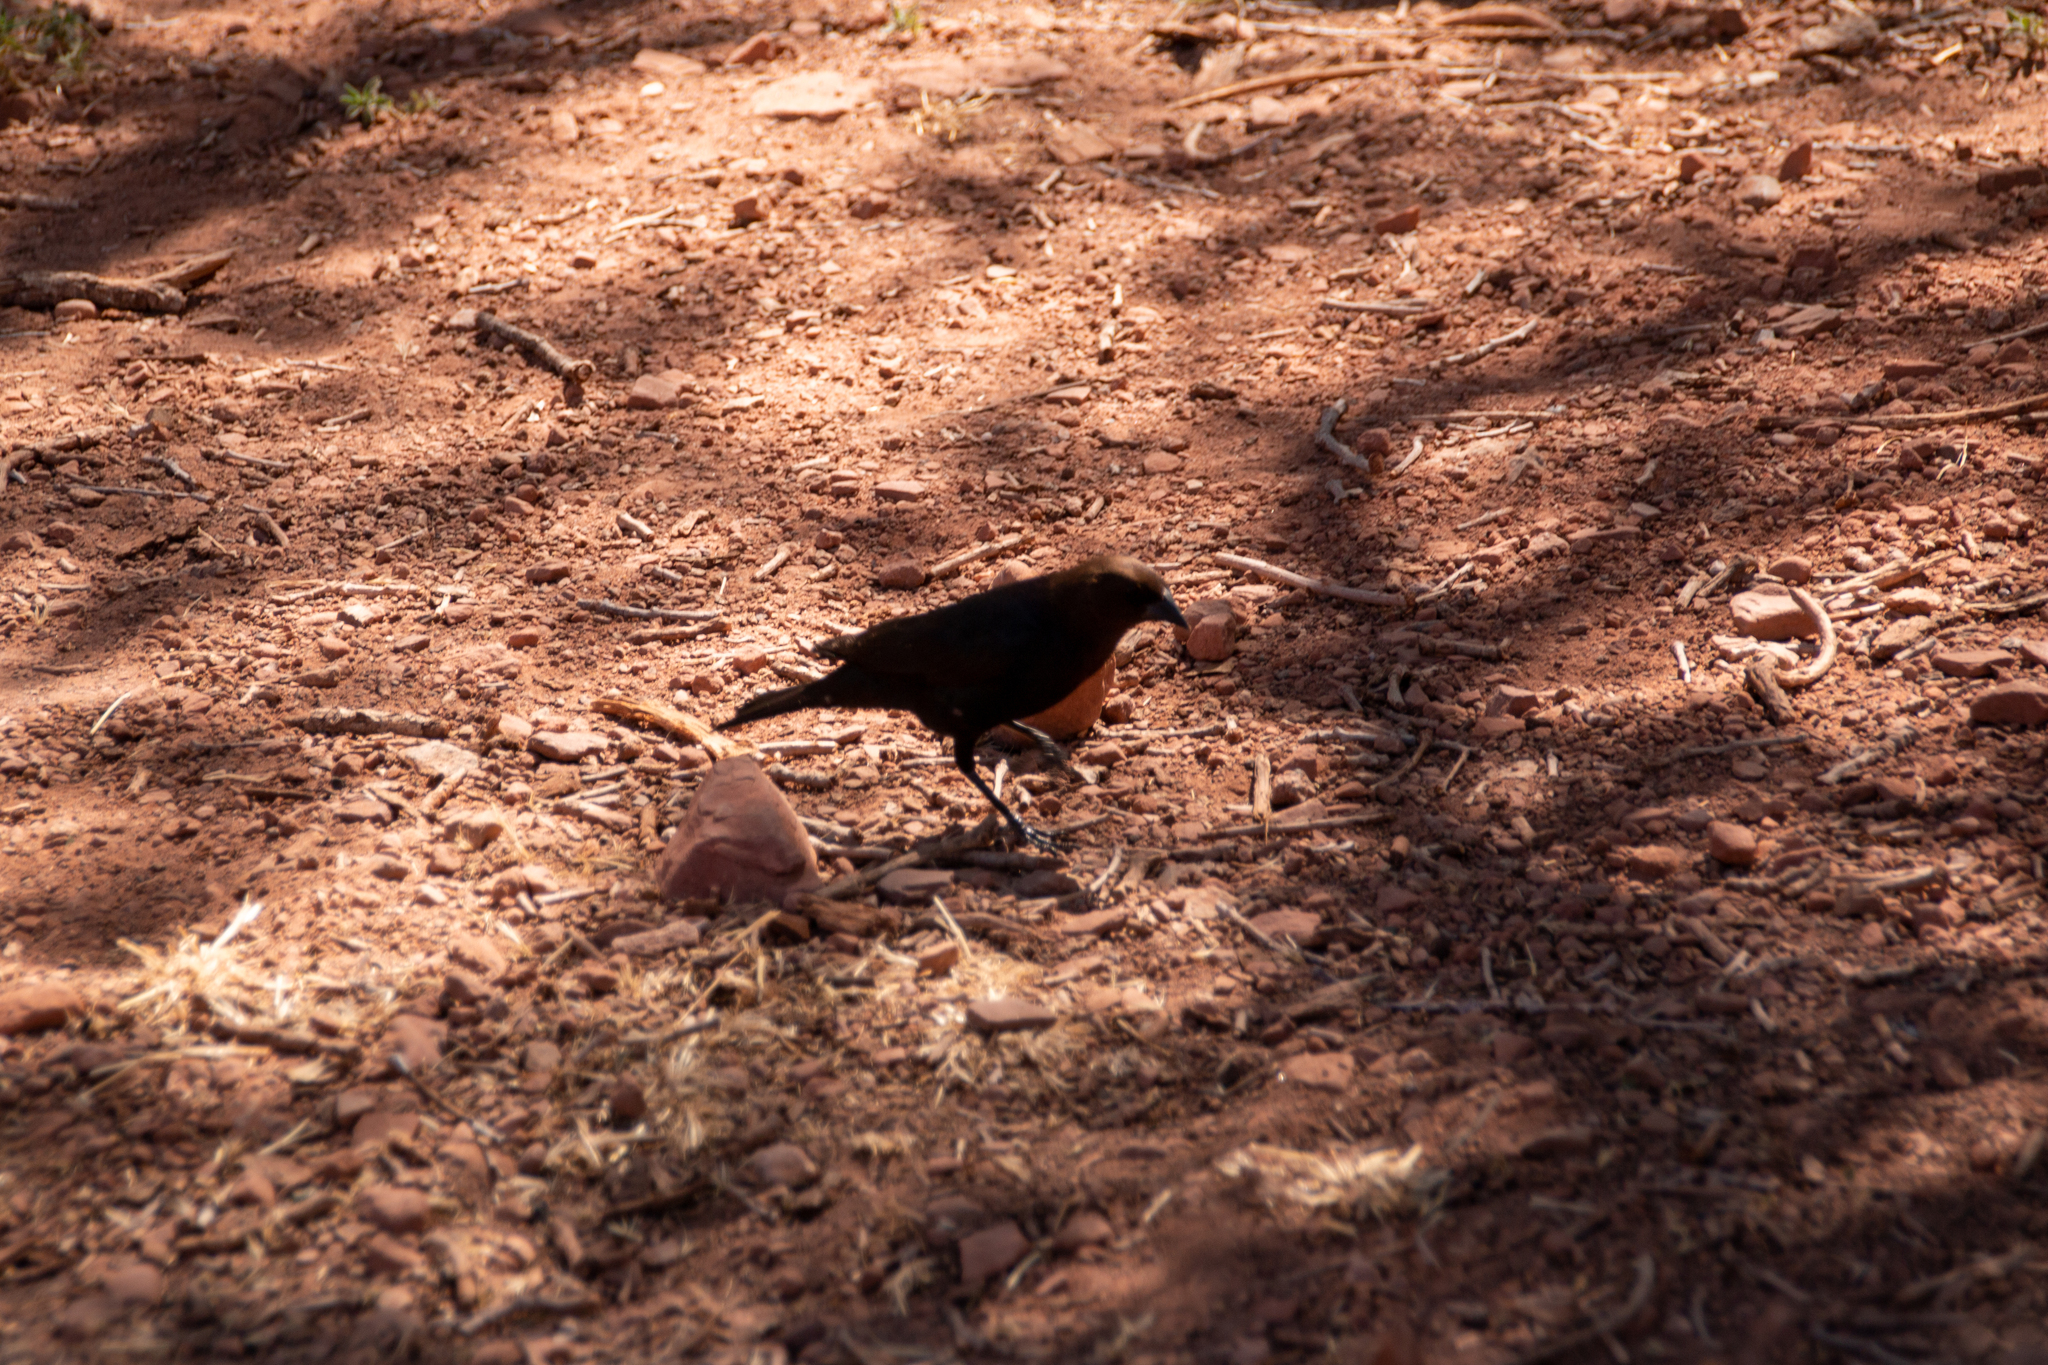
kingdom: Animalia
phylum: Chordata
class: Aves
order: Passeriformes
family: Icteridae
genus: Molothrus
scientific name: Molothrus ater
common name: Brown-headed cowbird
